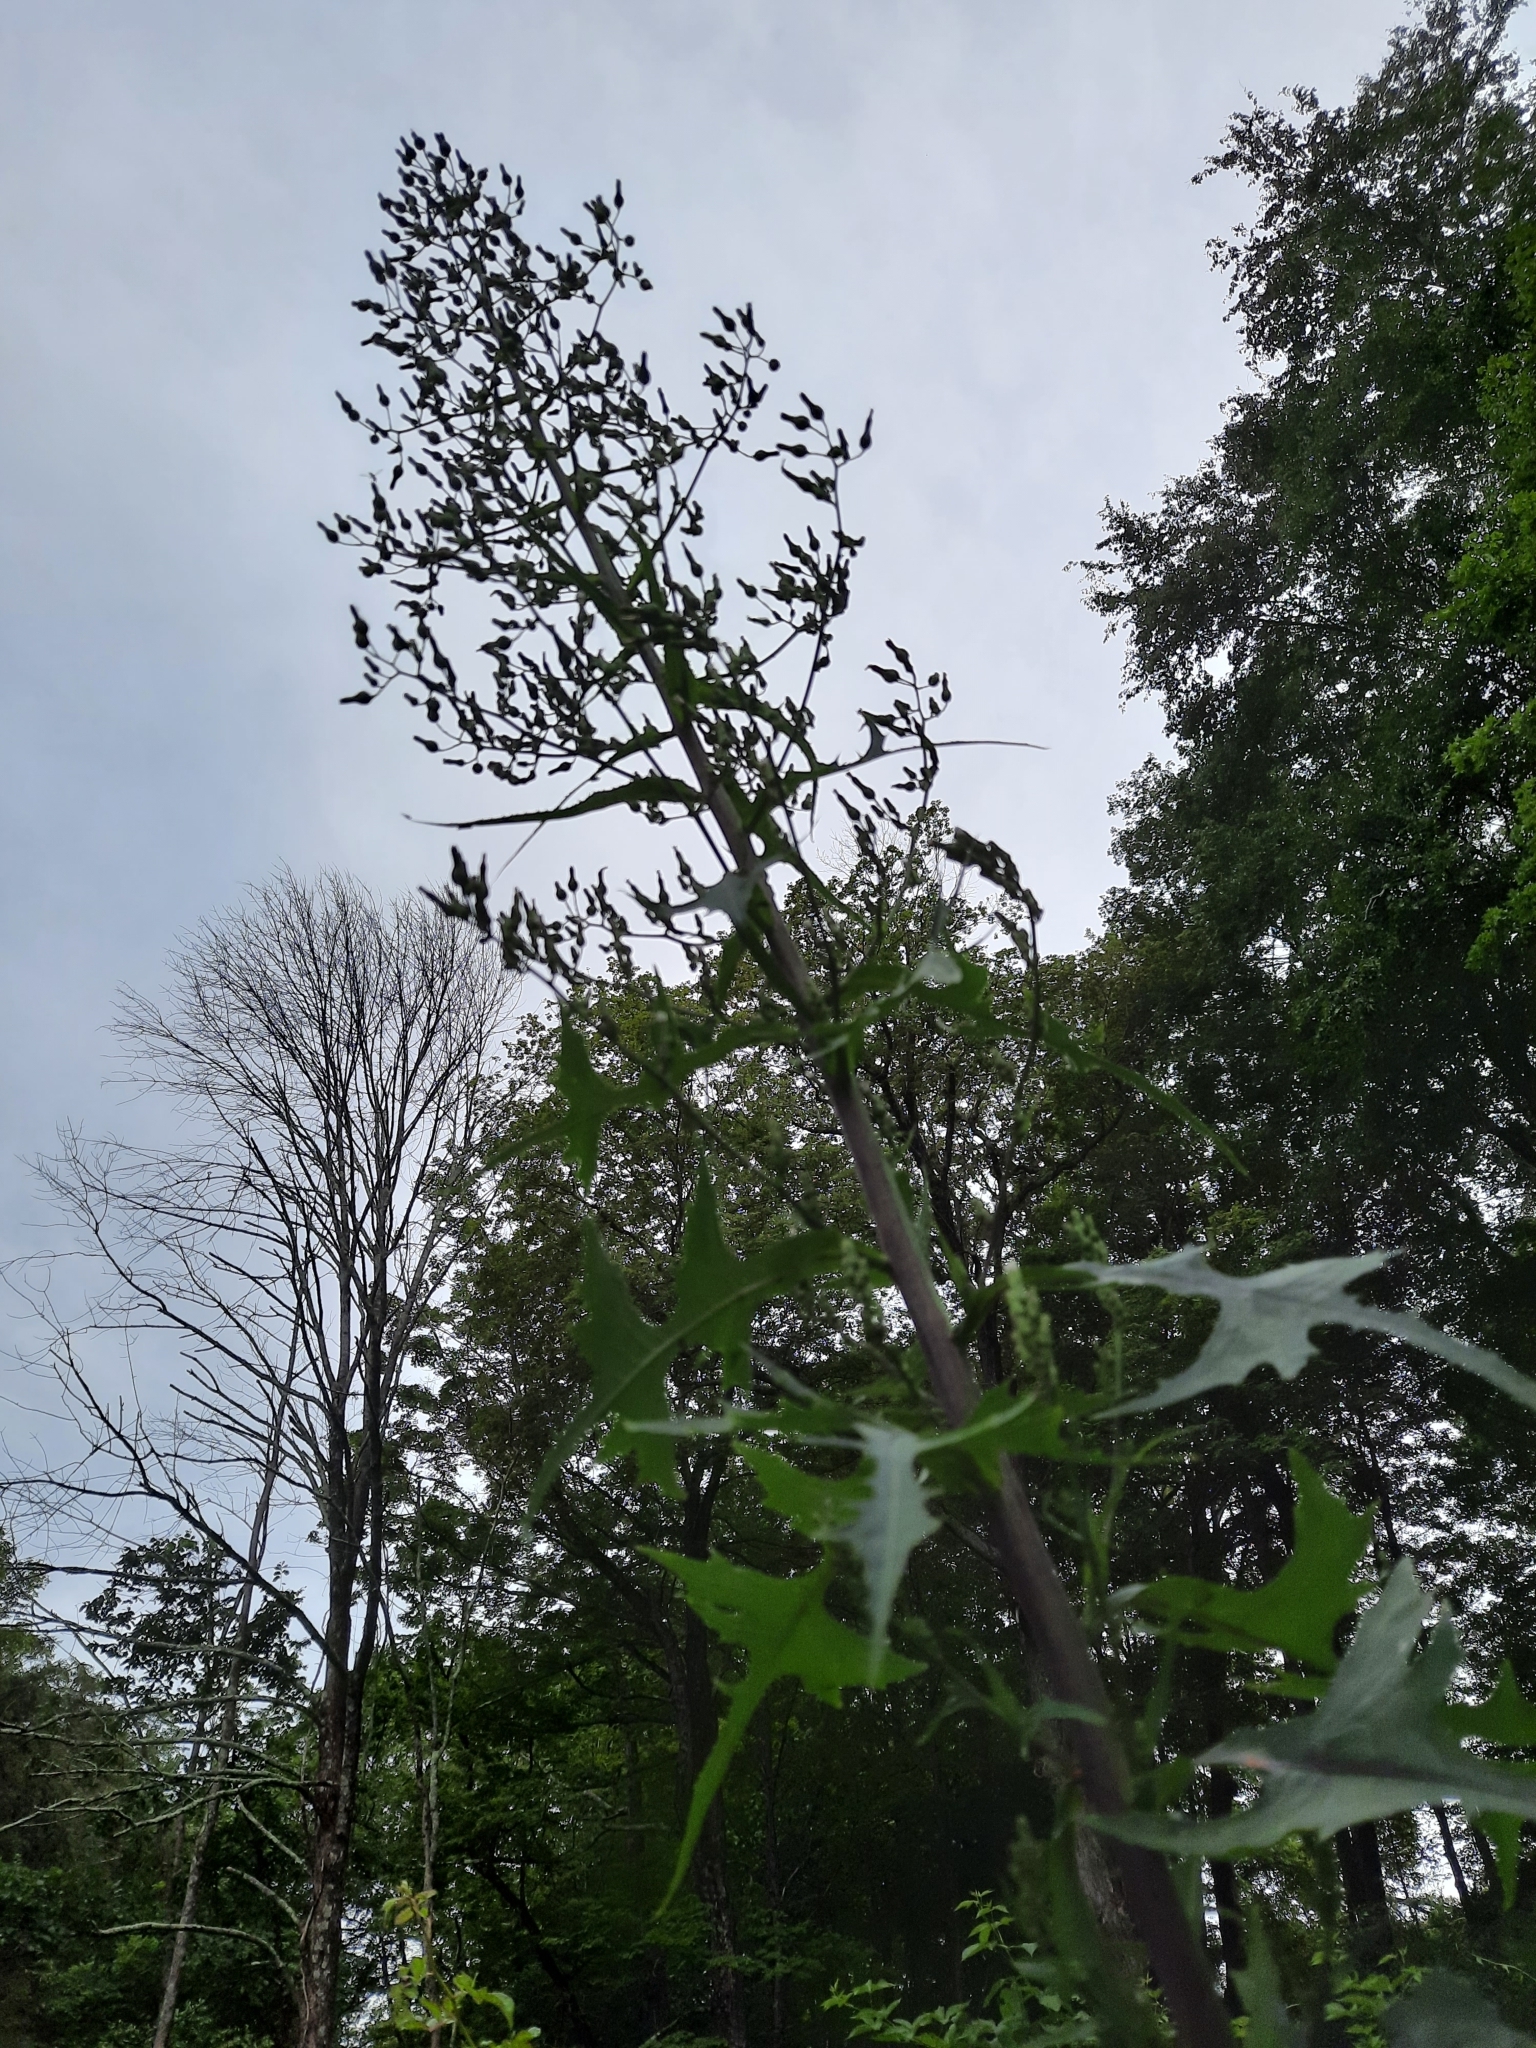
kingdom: Plantae
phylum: Tracheophyta
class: Magnoliopsida
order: Asterales
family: Asteraceae
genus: Lactuca
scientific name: Lactuca biennis
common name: Blue wood lettuce
